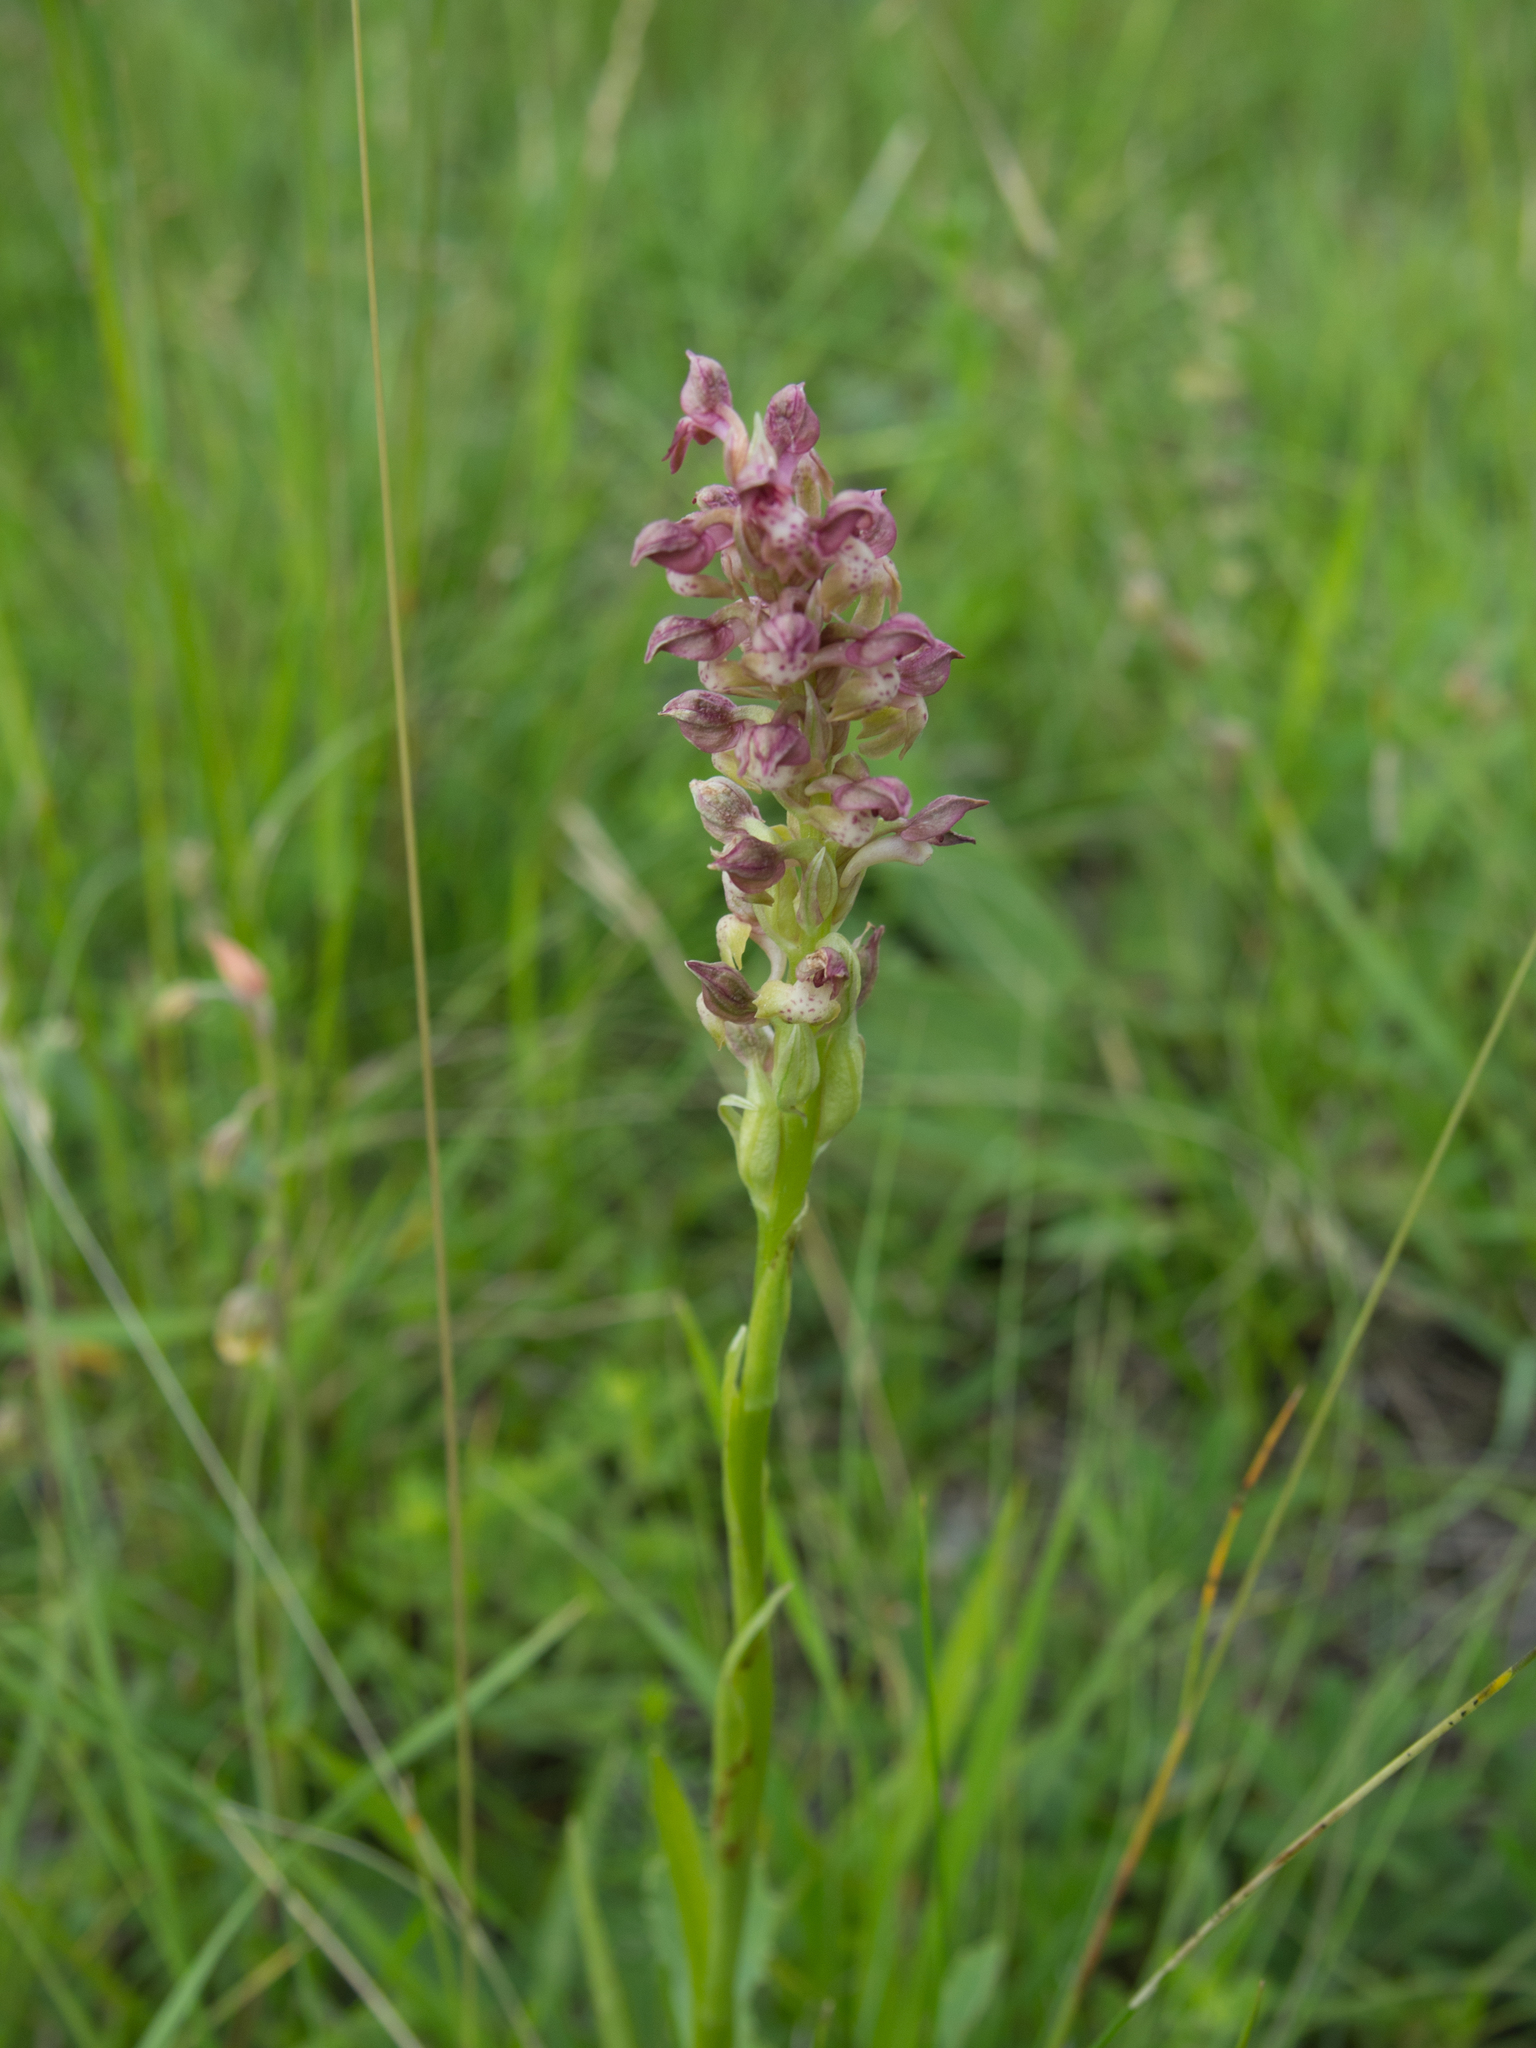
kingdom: Plantae
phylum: Tracheophyta
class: Liliopsida
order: Asparagales
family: Orchidaceae
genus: Anacamptis
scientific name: Anacamptis coriophora
